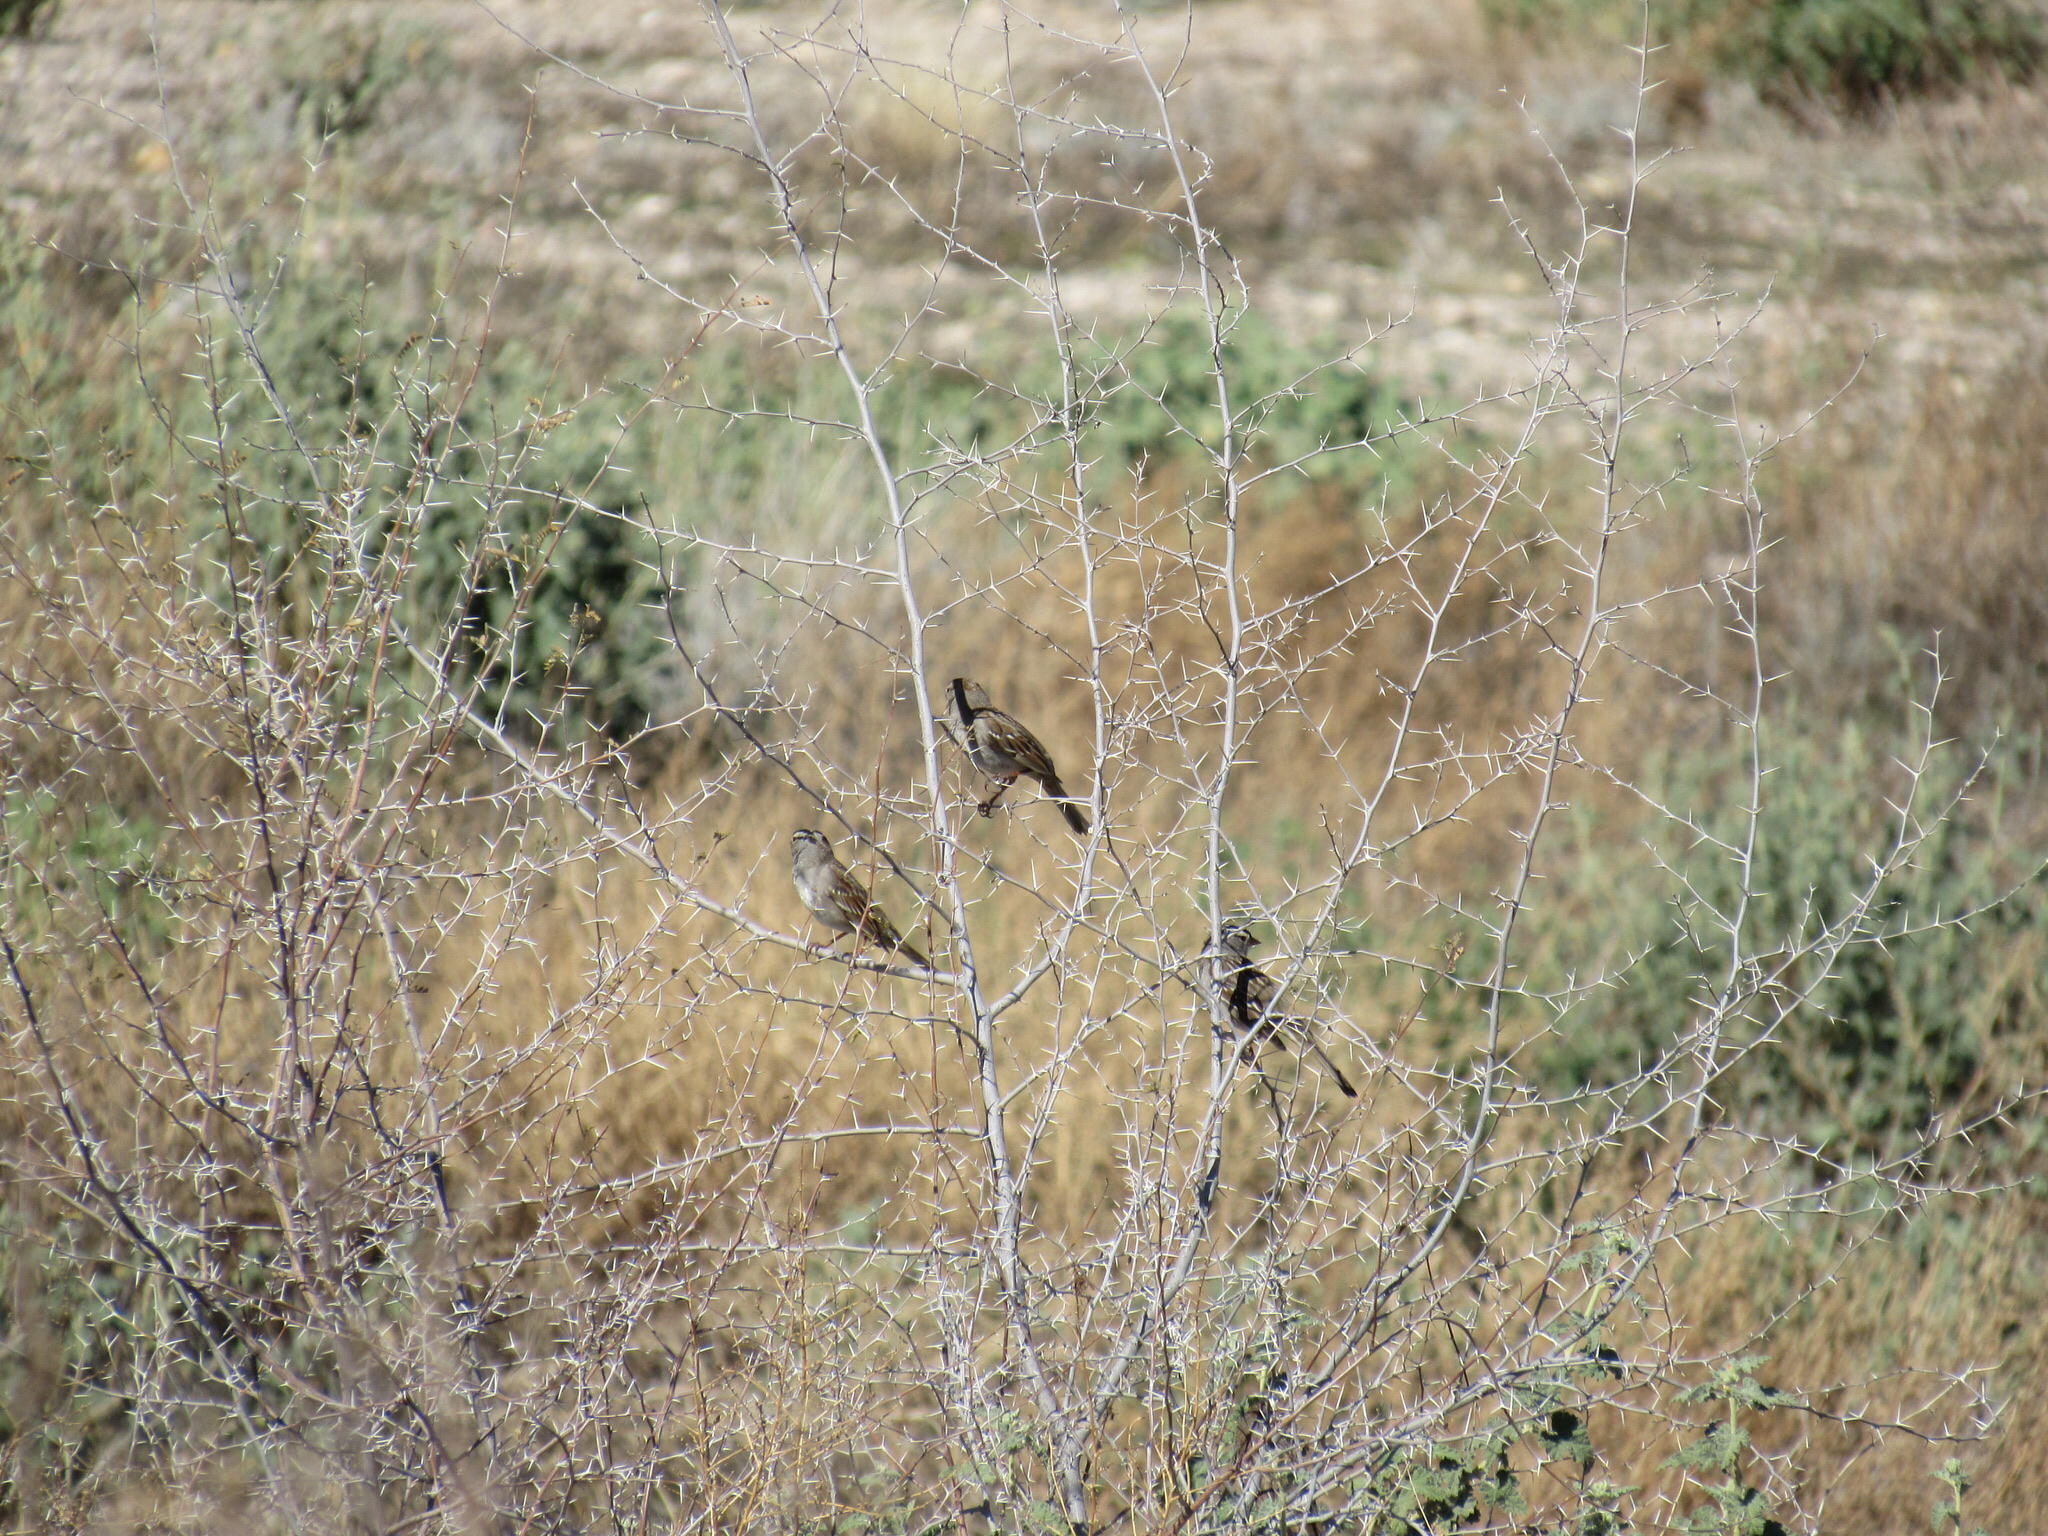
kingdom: Animalia
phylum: Chordata
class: Aves
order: Passeriformes
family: Passerellidae
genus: Zonotrichia
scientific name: Zonotrichia leucophrys
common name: White-crowned sparrow
